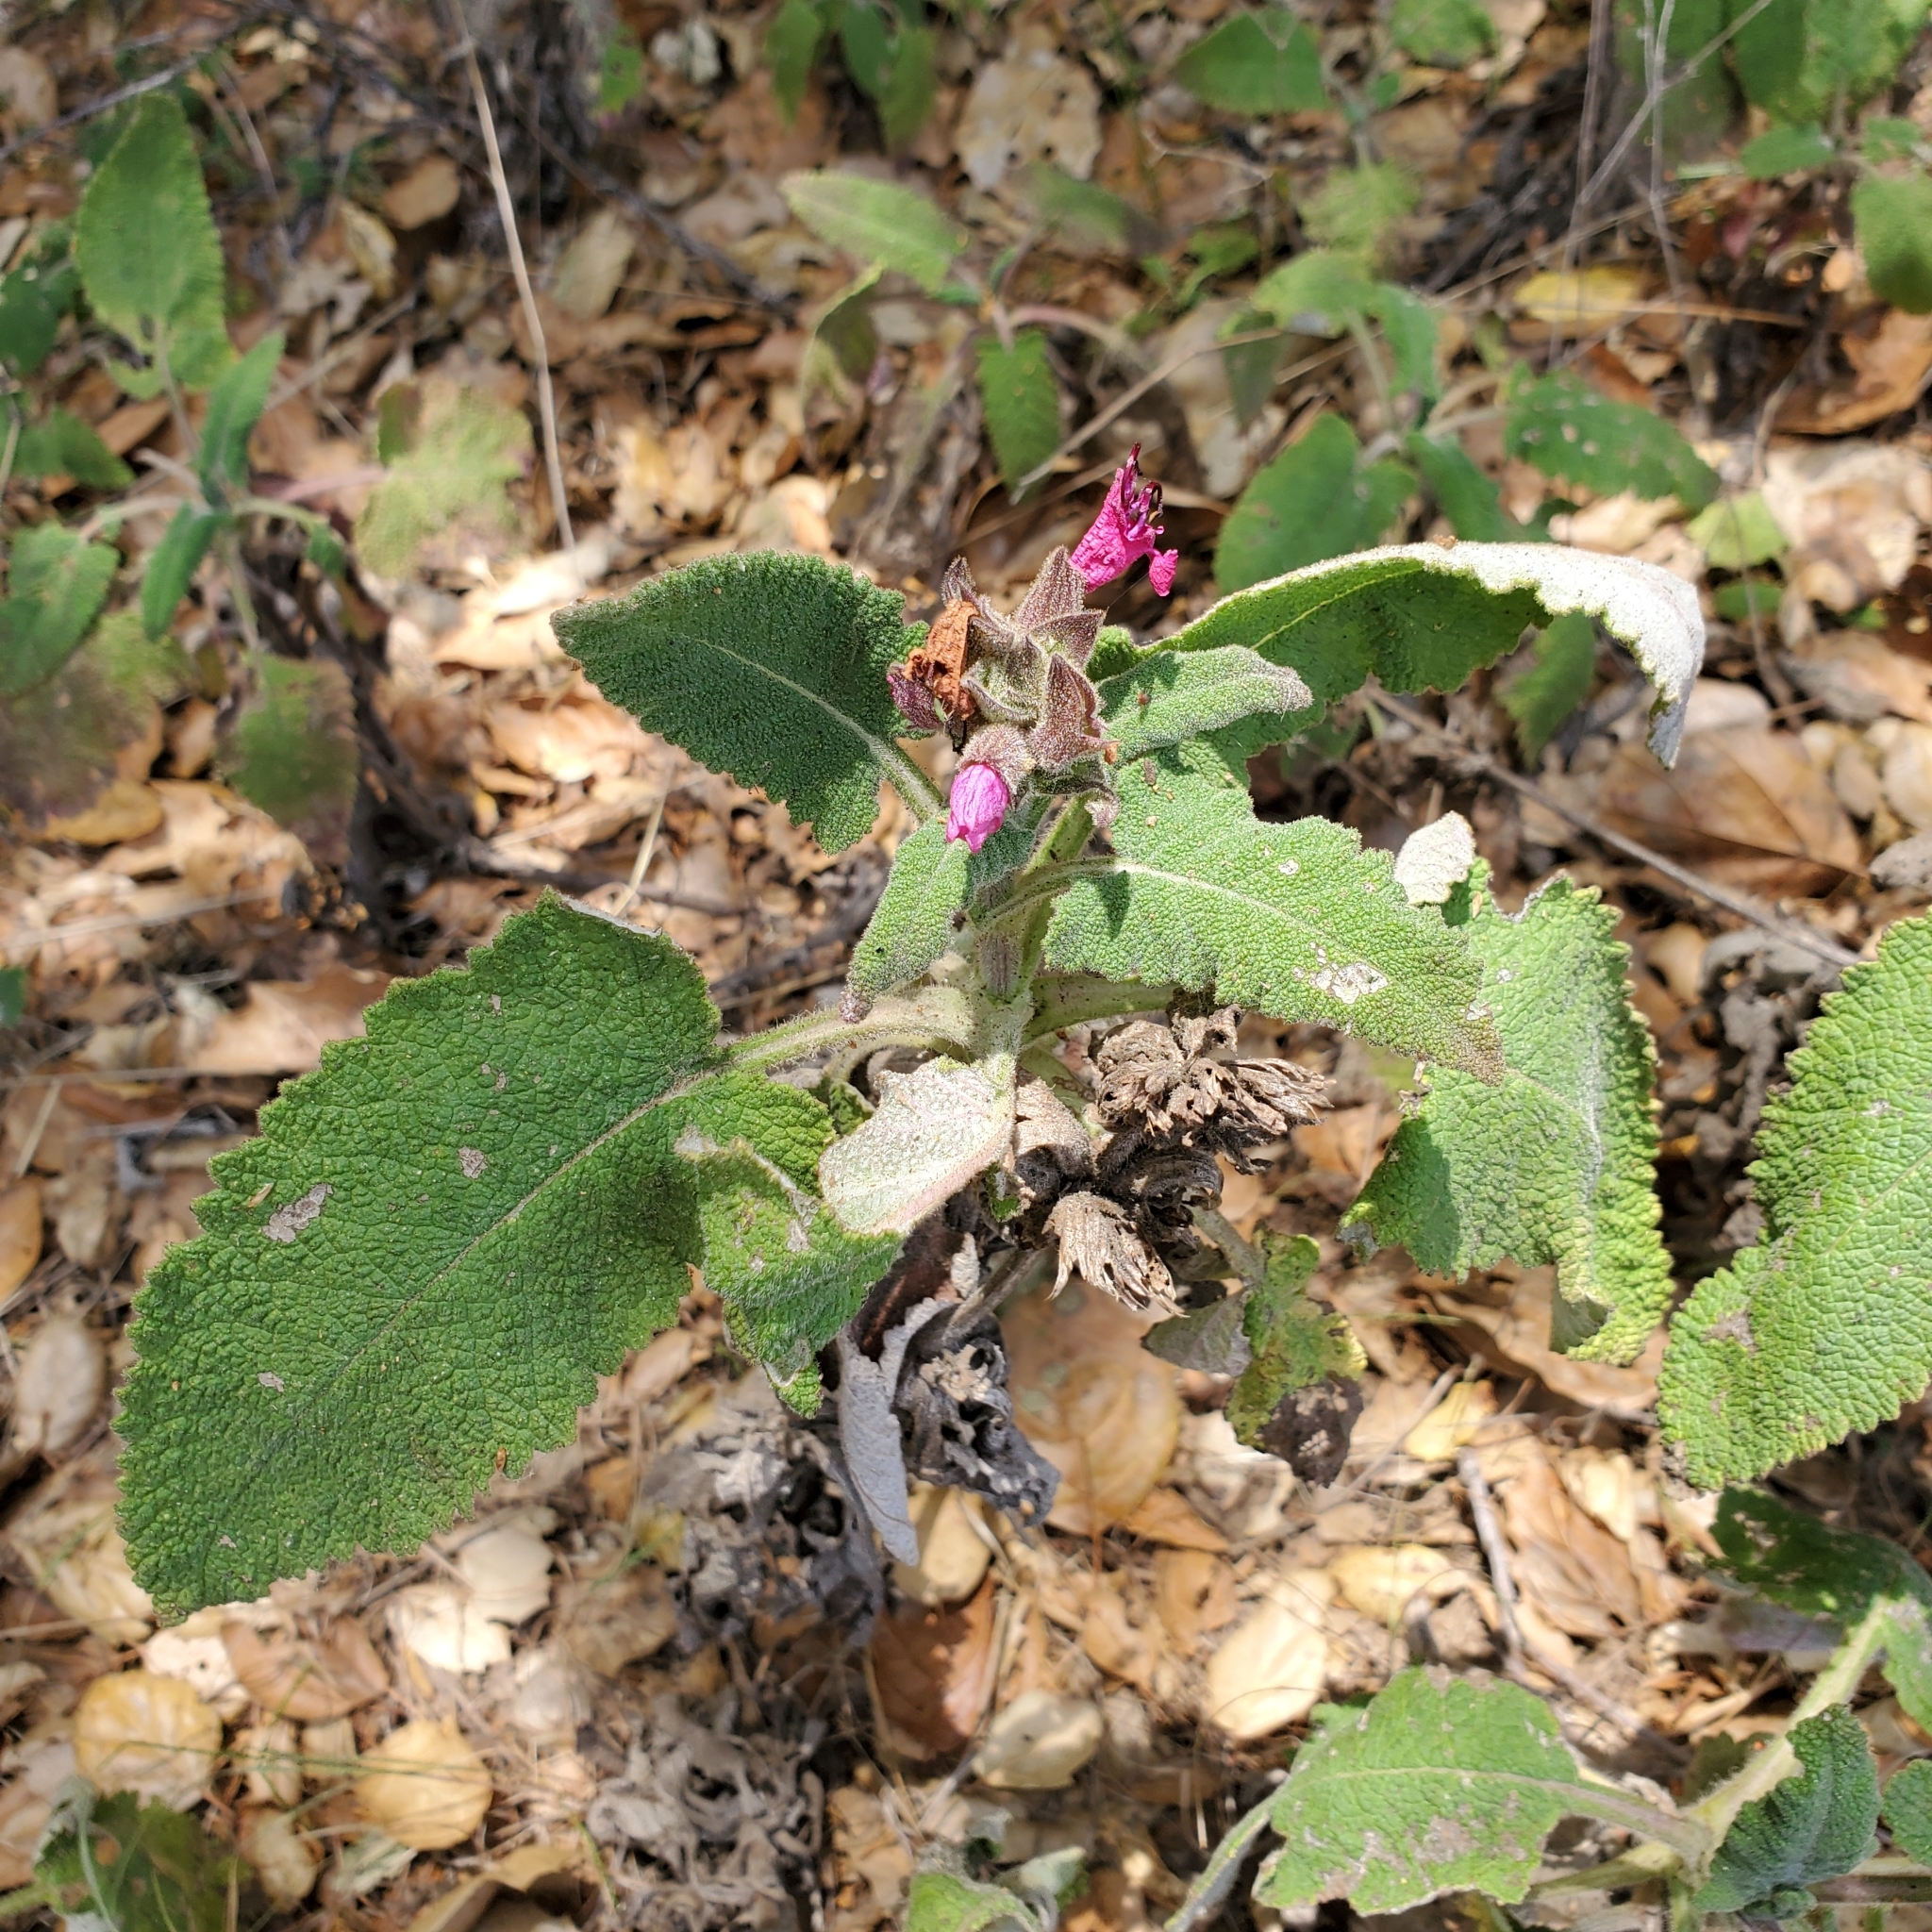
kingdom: Plantae
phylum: Tracheophyta
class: Magnoliopsida
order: Lamiales
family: Lamiaceae
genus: Salvia
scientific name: Salvia spathacea
